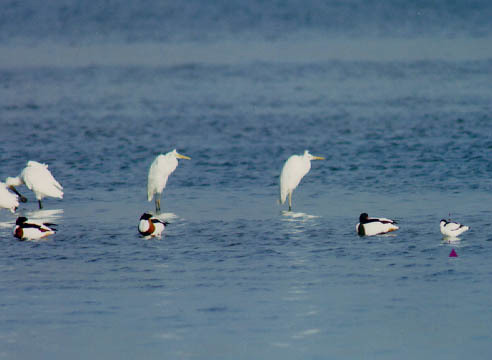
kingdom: Animalia
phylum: Chordata
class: Aves
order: Charadriiformes
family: Recurvirostridae
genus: Recurvirostra
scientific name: Recurvirostra avosetta
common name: Pied avocet
